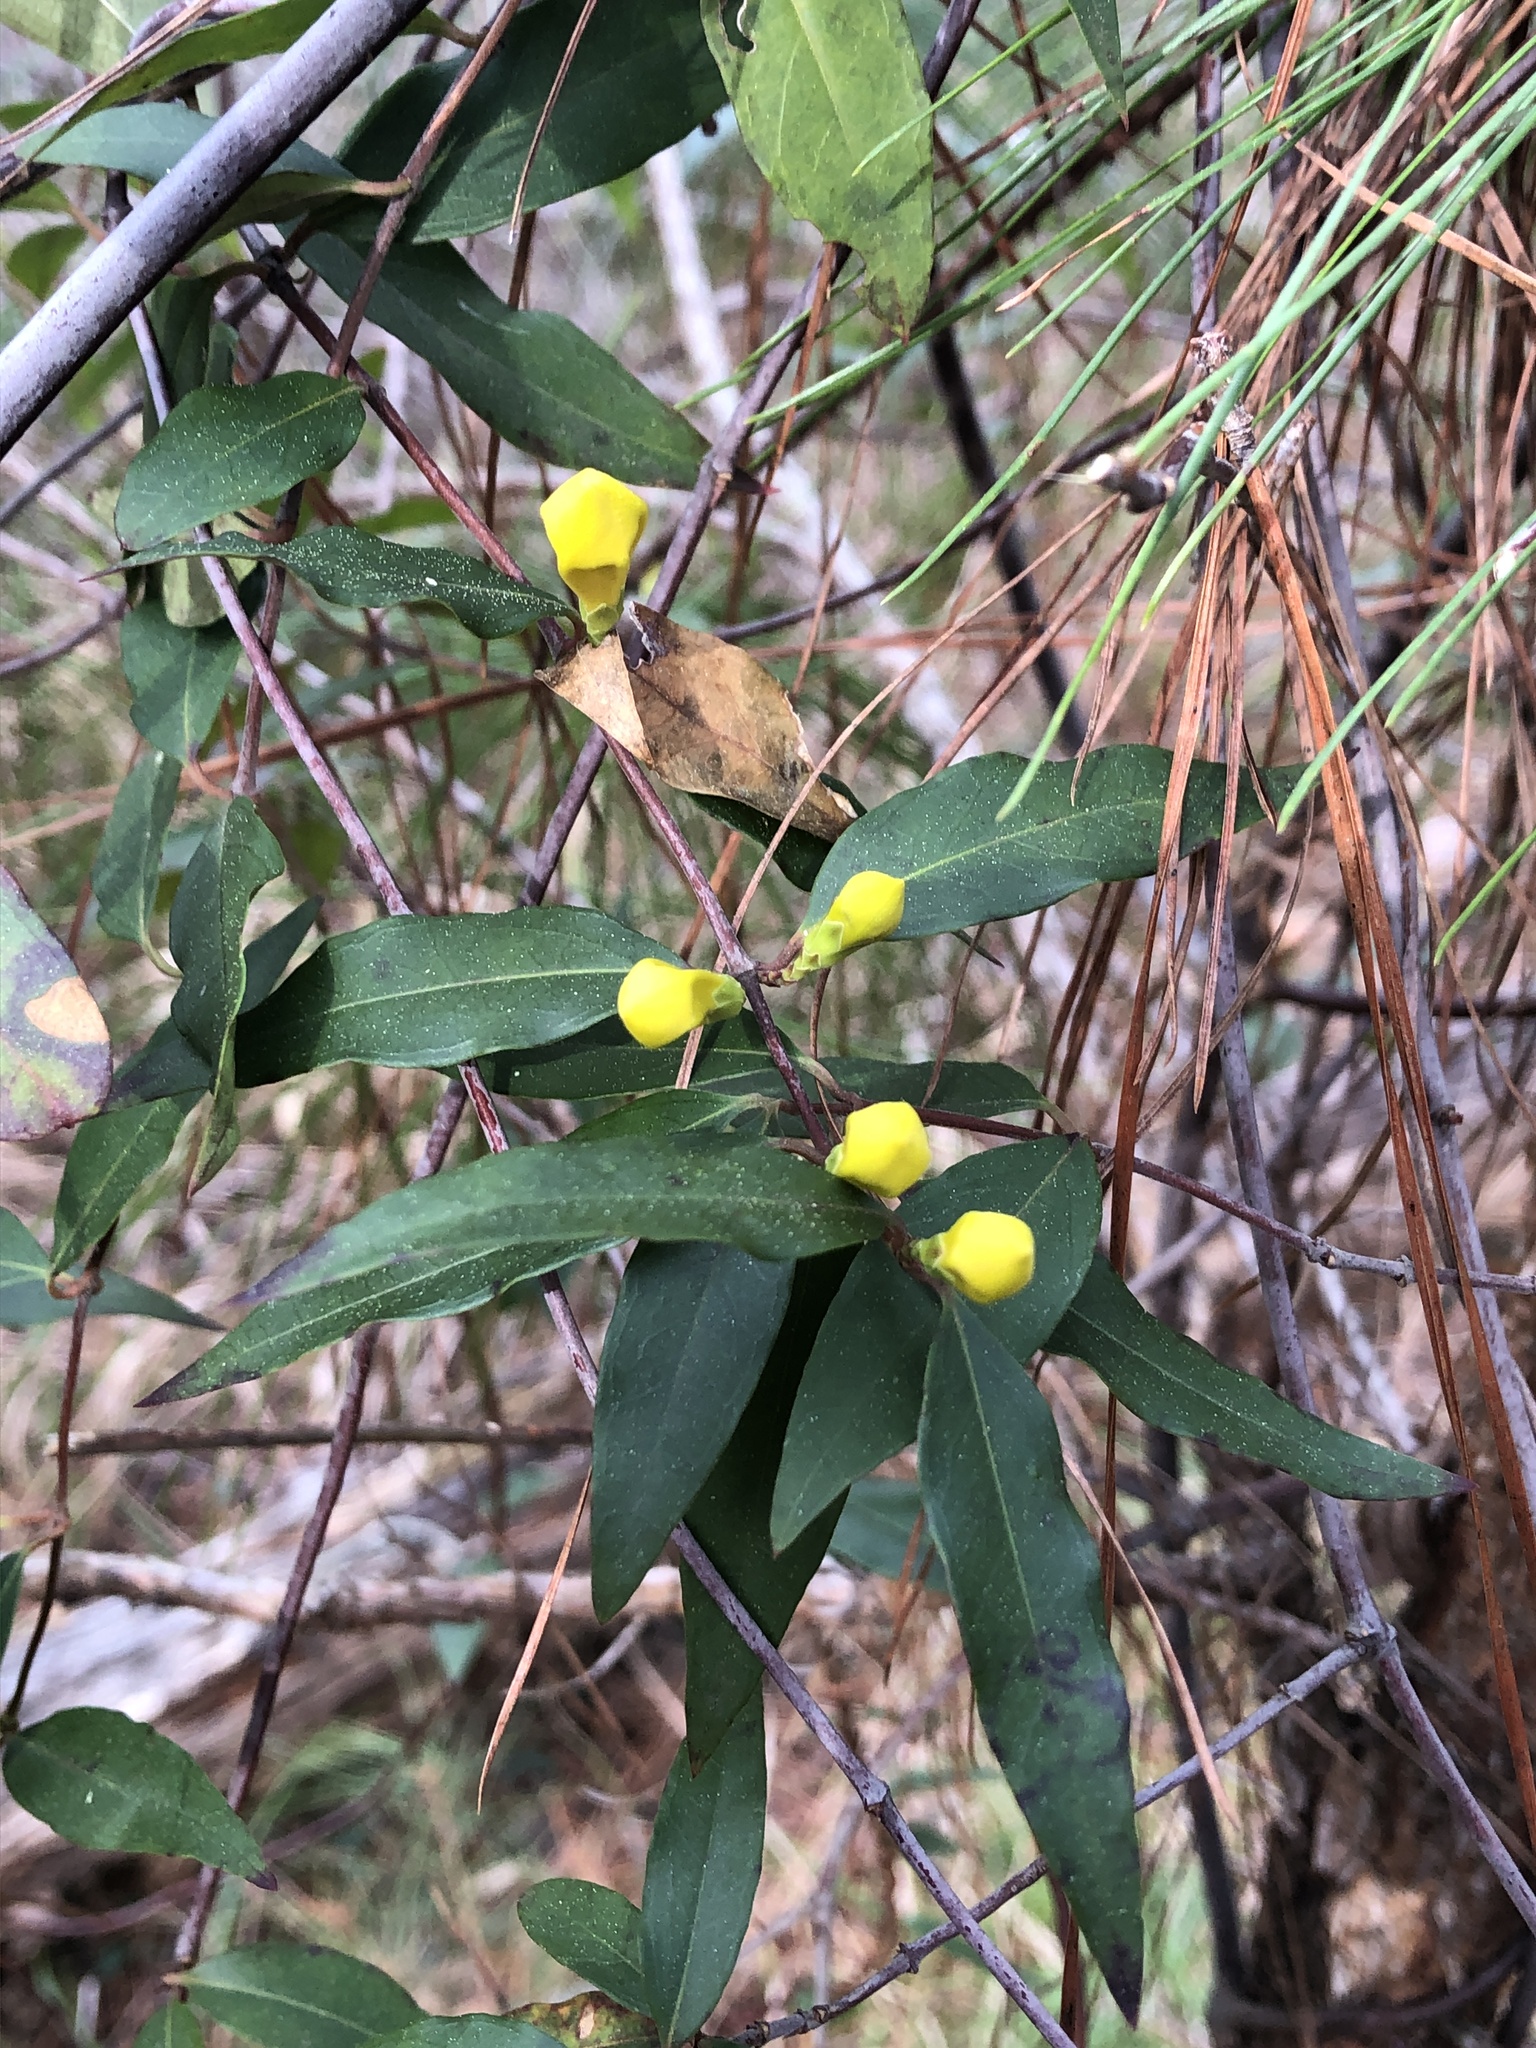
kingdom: Plantae
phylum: Tracheophyta
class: Magnoliopsida
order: Gentianales
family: Gelsemiaceae
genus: Gelsemium
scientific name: Gelsemium sempervirens
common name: Carolina-jasmine
